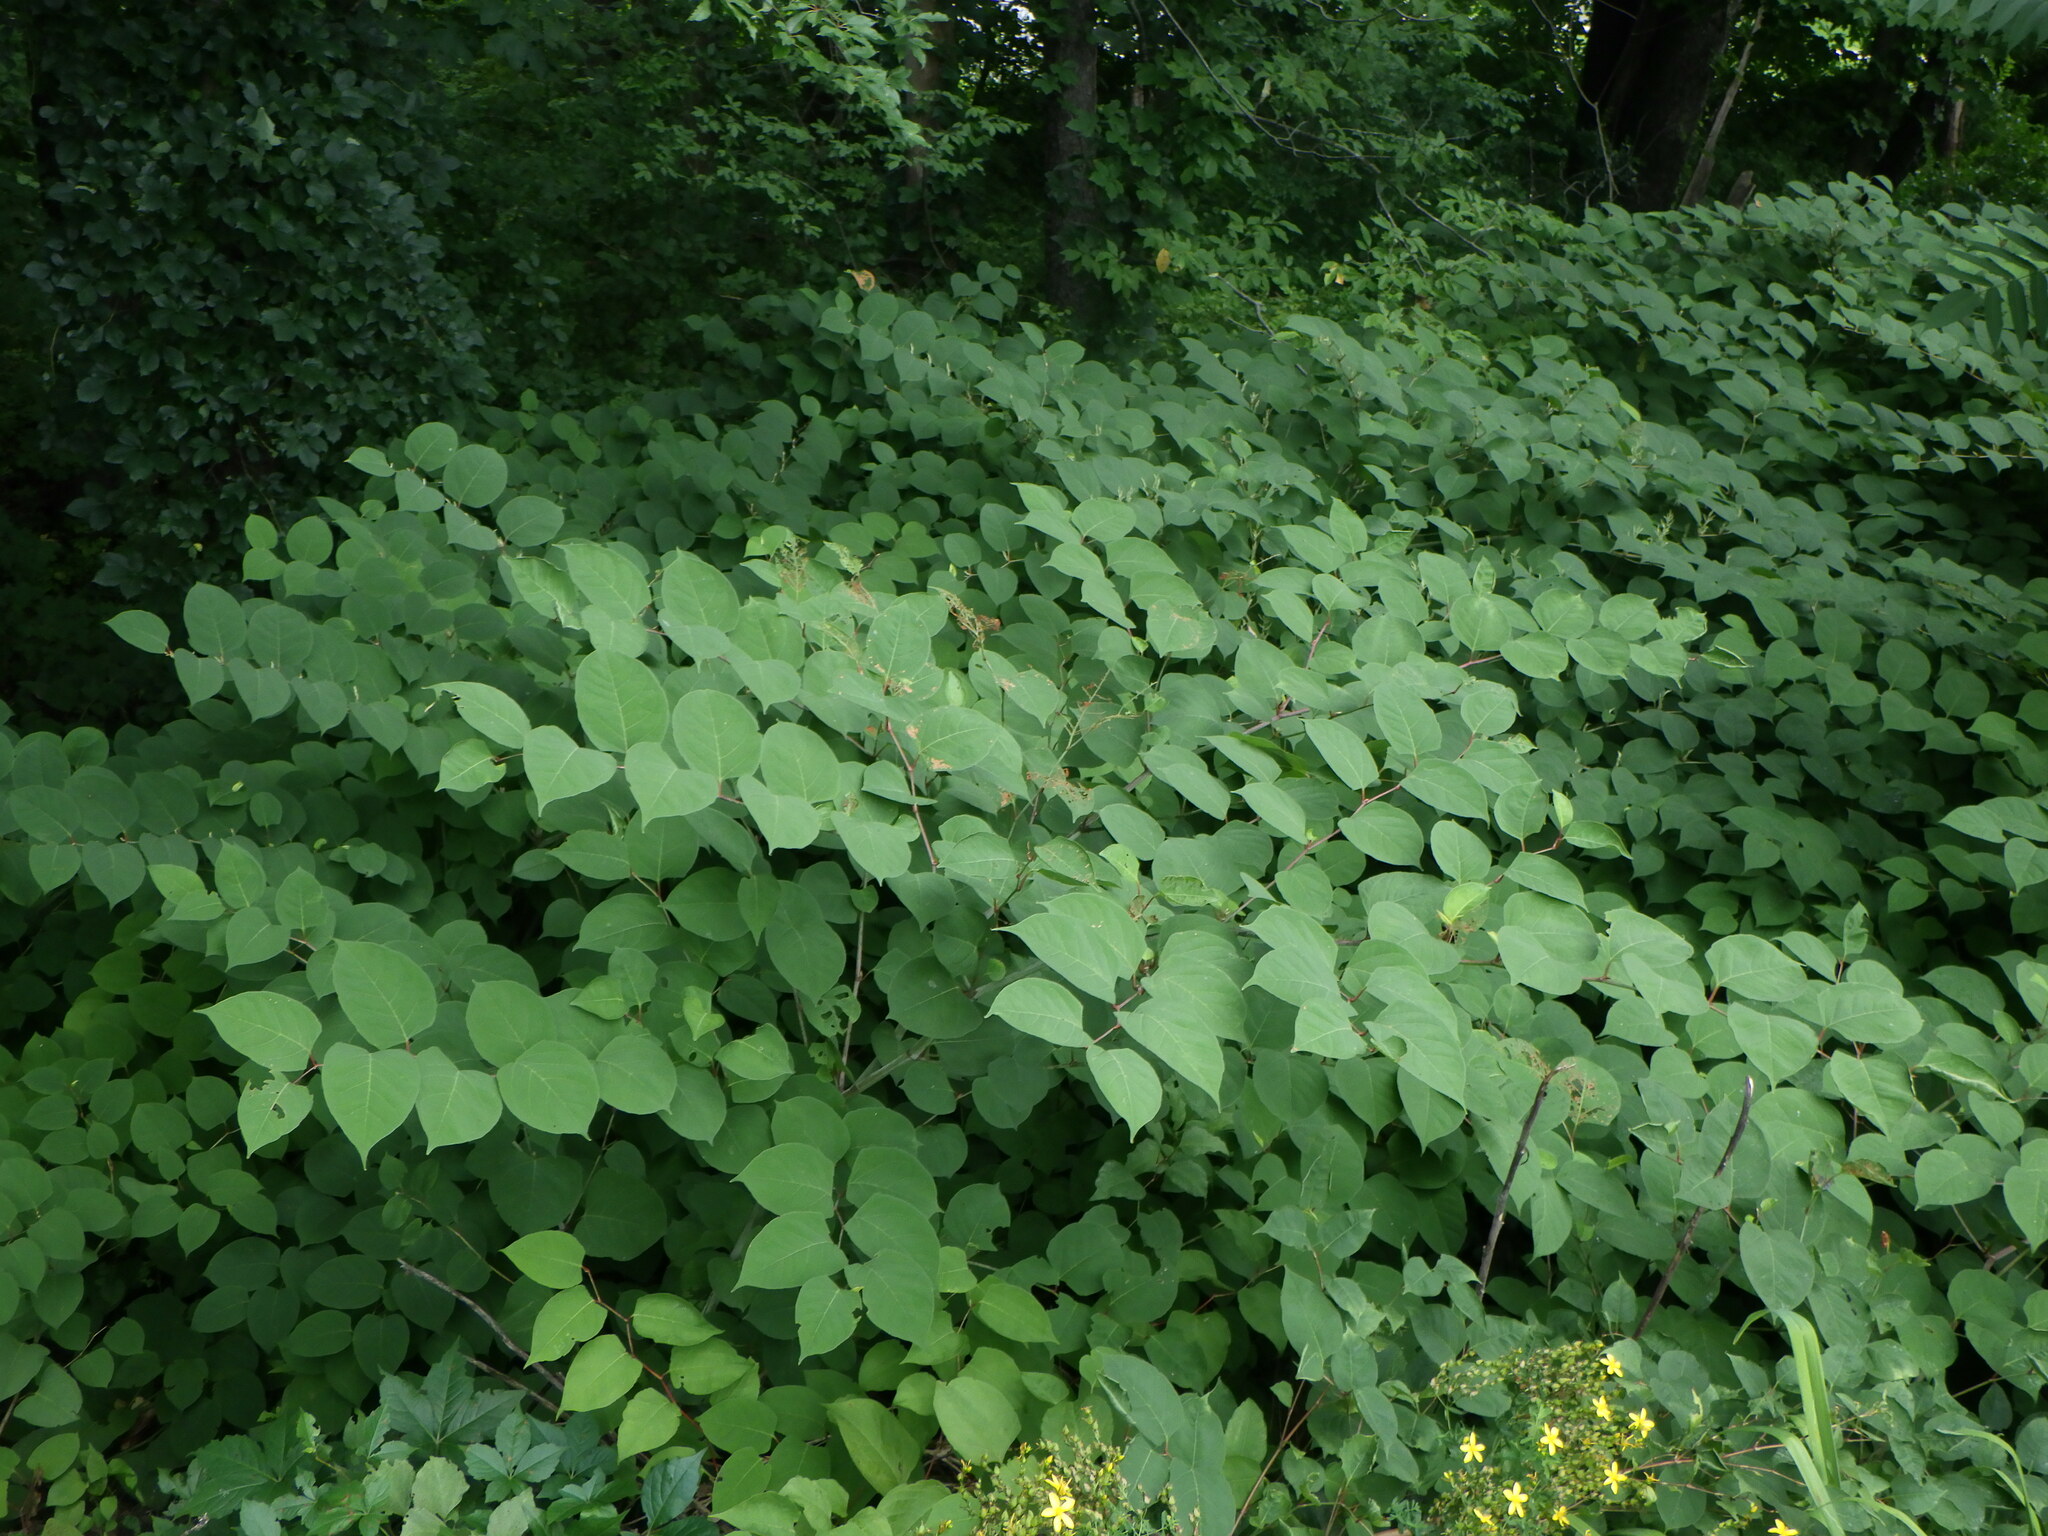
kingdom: Plantae
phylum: Tracheophyta
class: Magnoliopsida
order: Caryophyllales
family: Polygonaceae
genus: Reynoutria
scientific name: Reynoutria japonica
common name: Japanese knotweed
